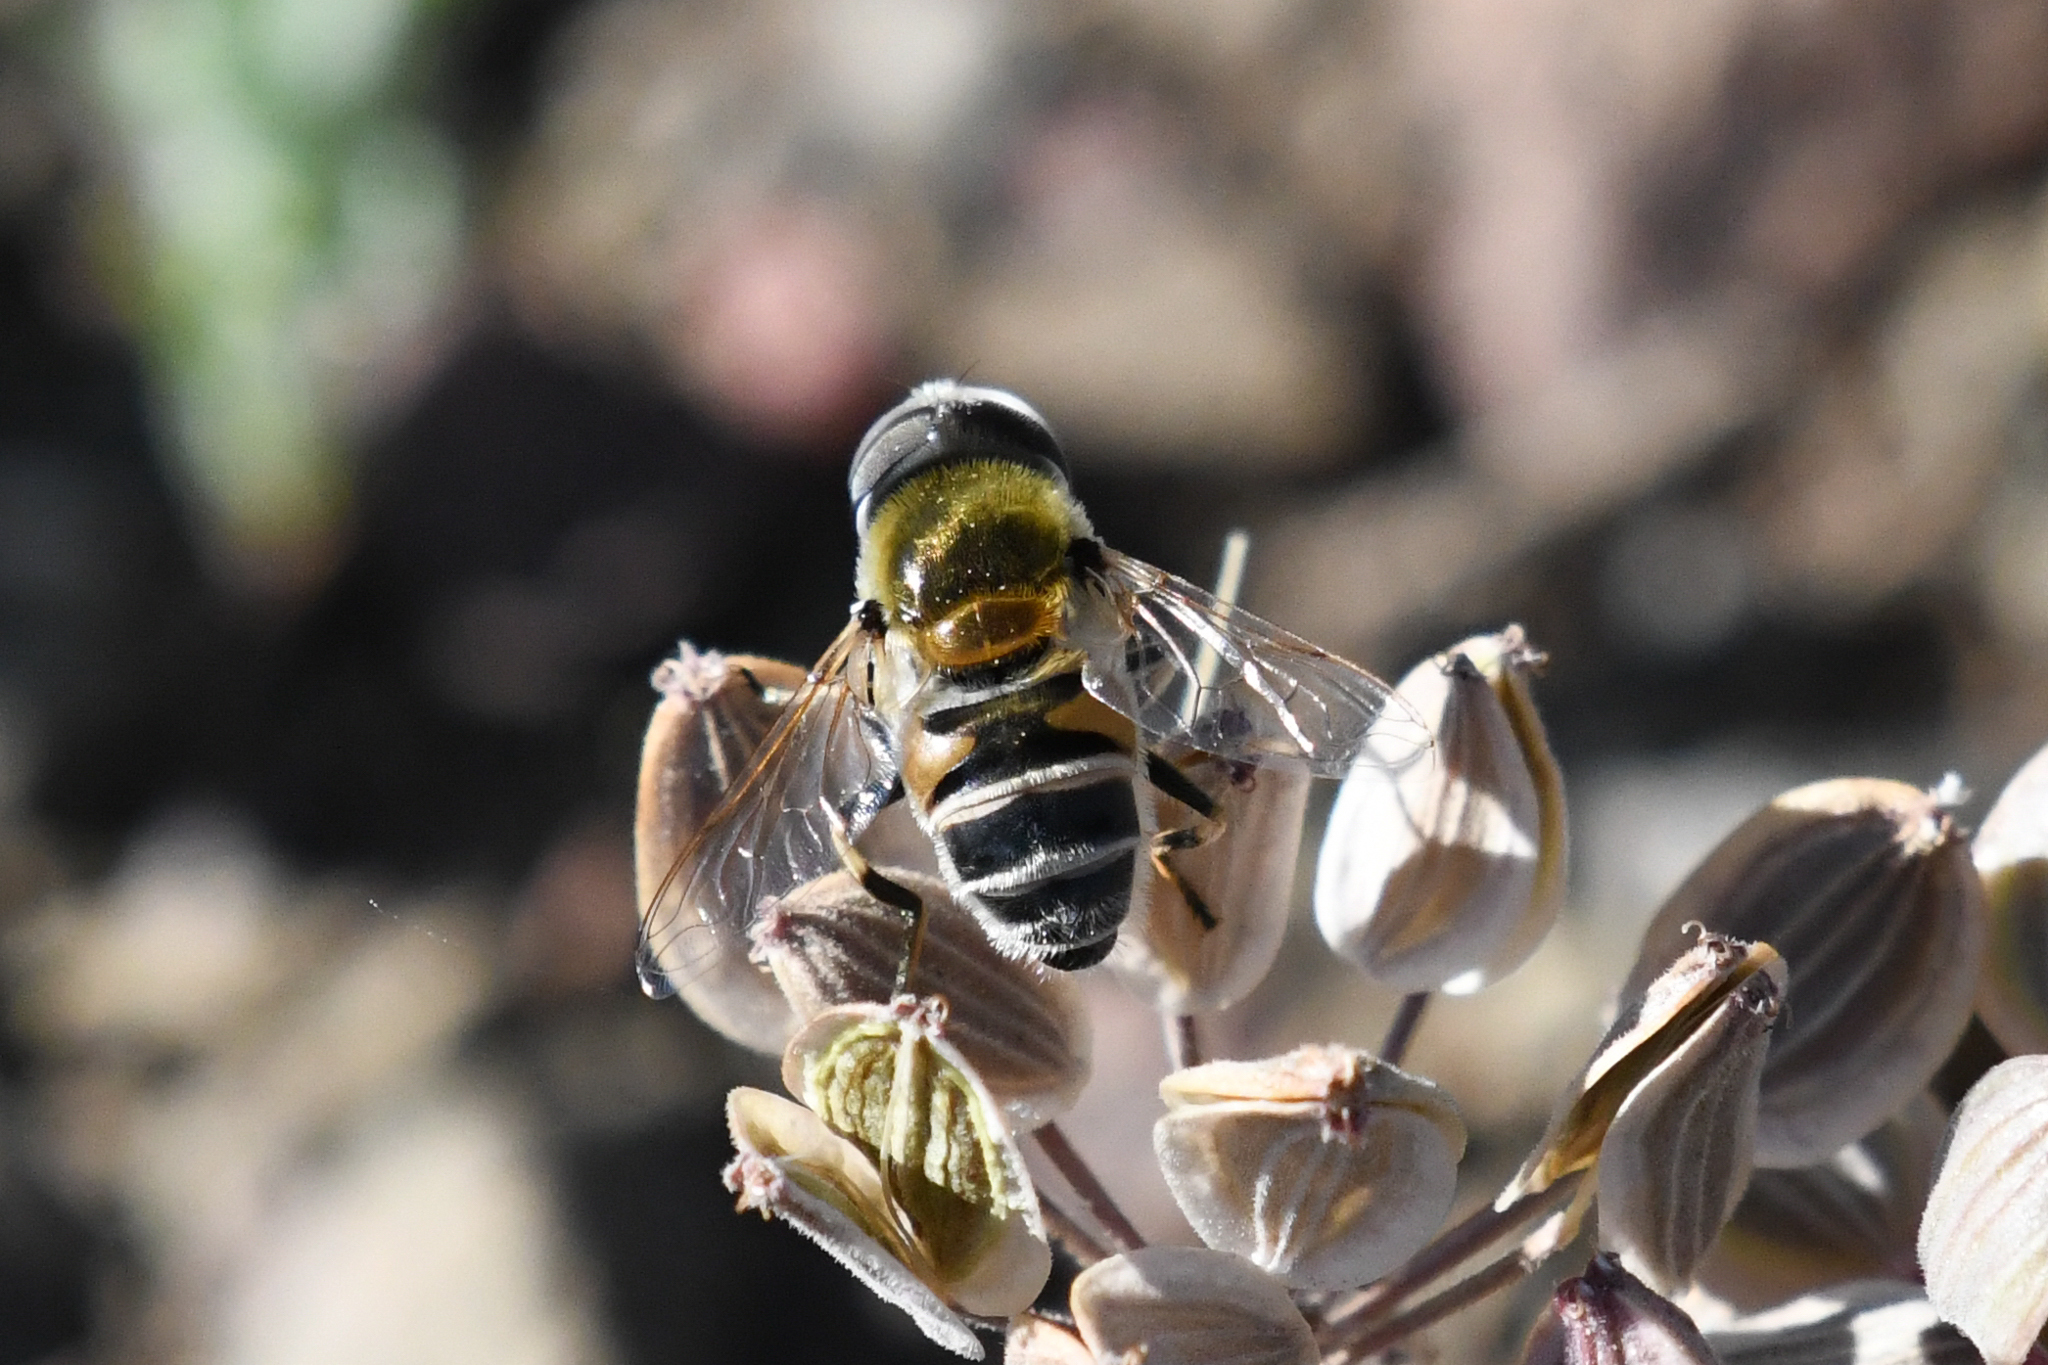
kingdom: Animalia
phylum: Arthropoda
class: Insecta
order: Diptera
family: Syrphidae
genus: Eristalis
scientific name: Eristalis stipator
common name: Yellow-shouldered drone fly
